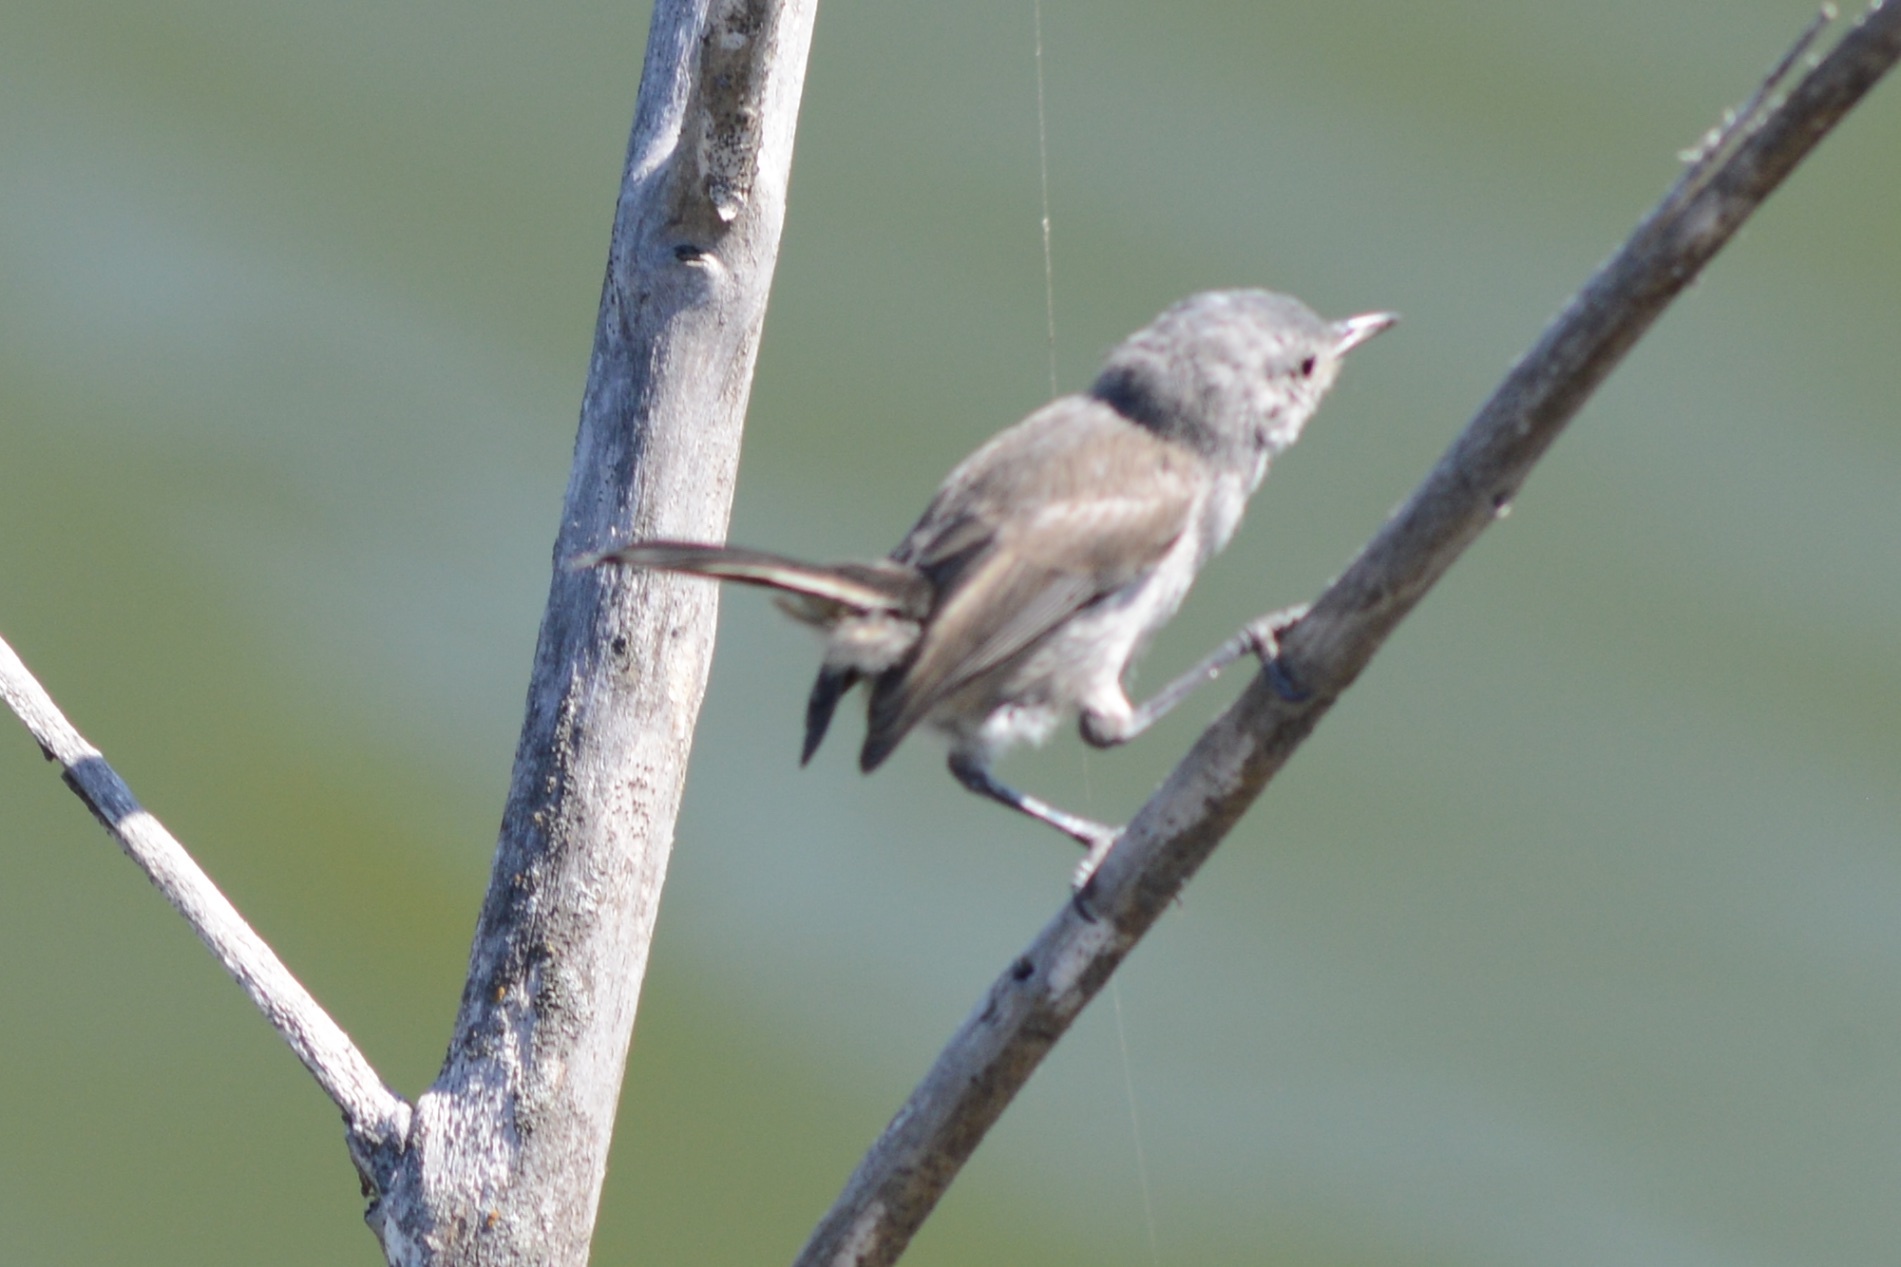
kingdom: Animalia
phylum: Chordata
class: Aves
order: Passeriformes
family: Polioptilidae
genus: Polioptila
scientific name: Polioptila californica
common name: California gnatcatcher
